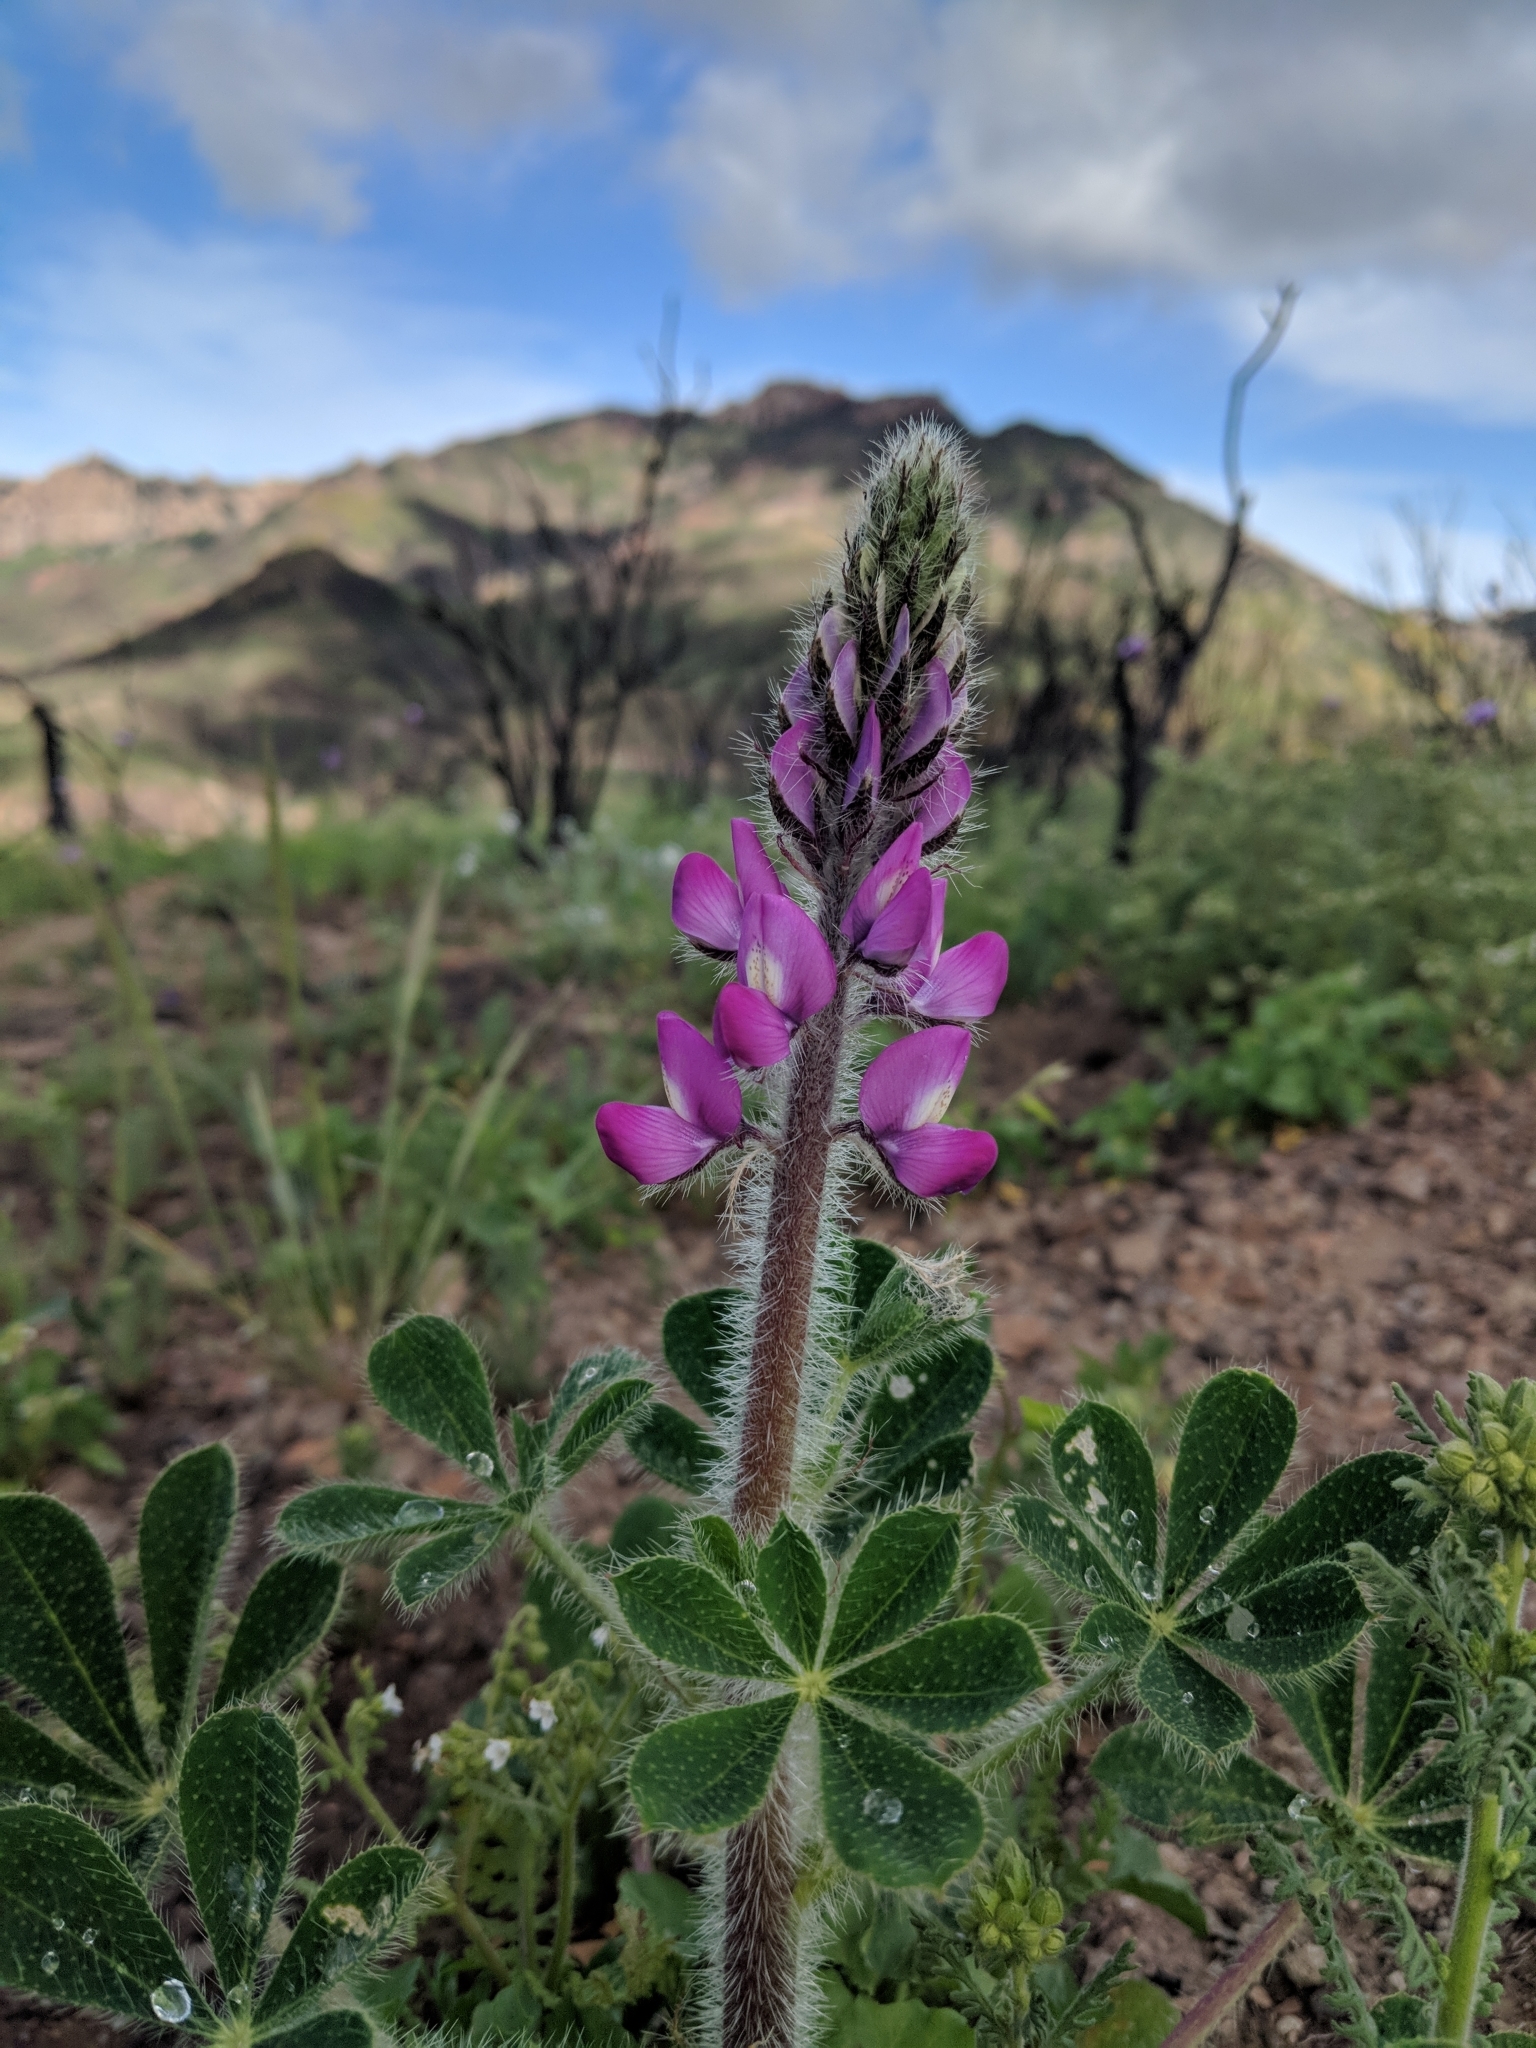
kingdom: Plantae
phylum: Tracheophyta
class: Magnoliopsida
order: Fabales
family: Fabaceae
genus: Lupinus
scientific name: Lupinus hirsutissimus
